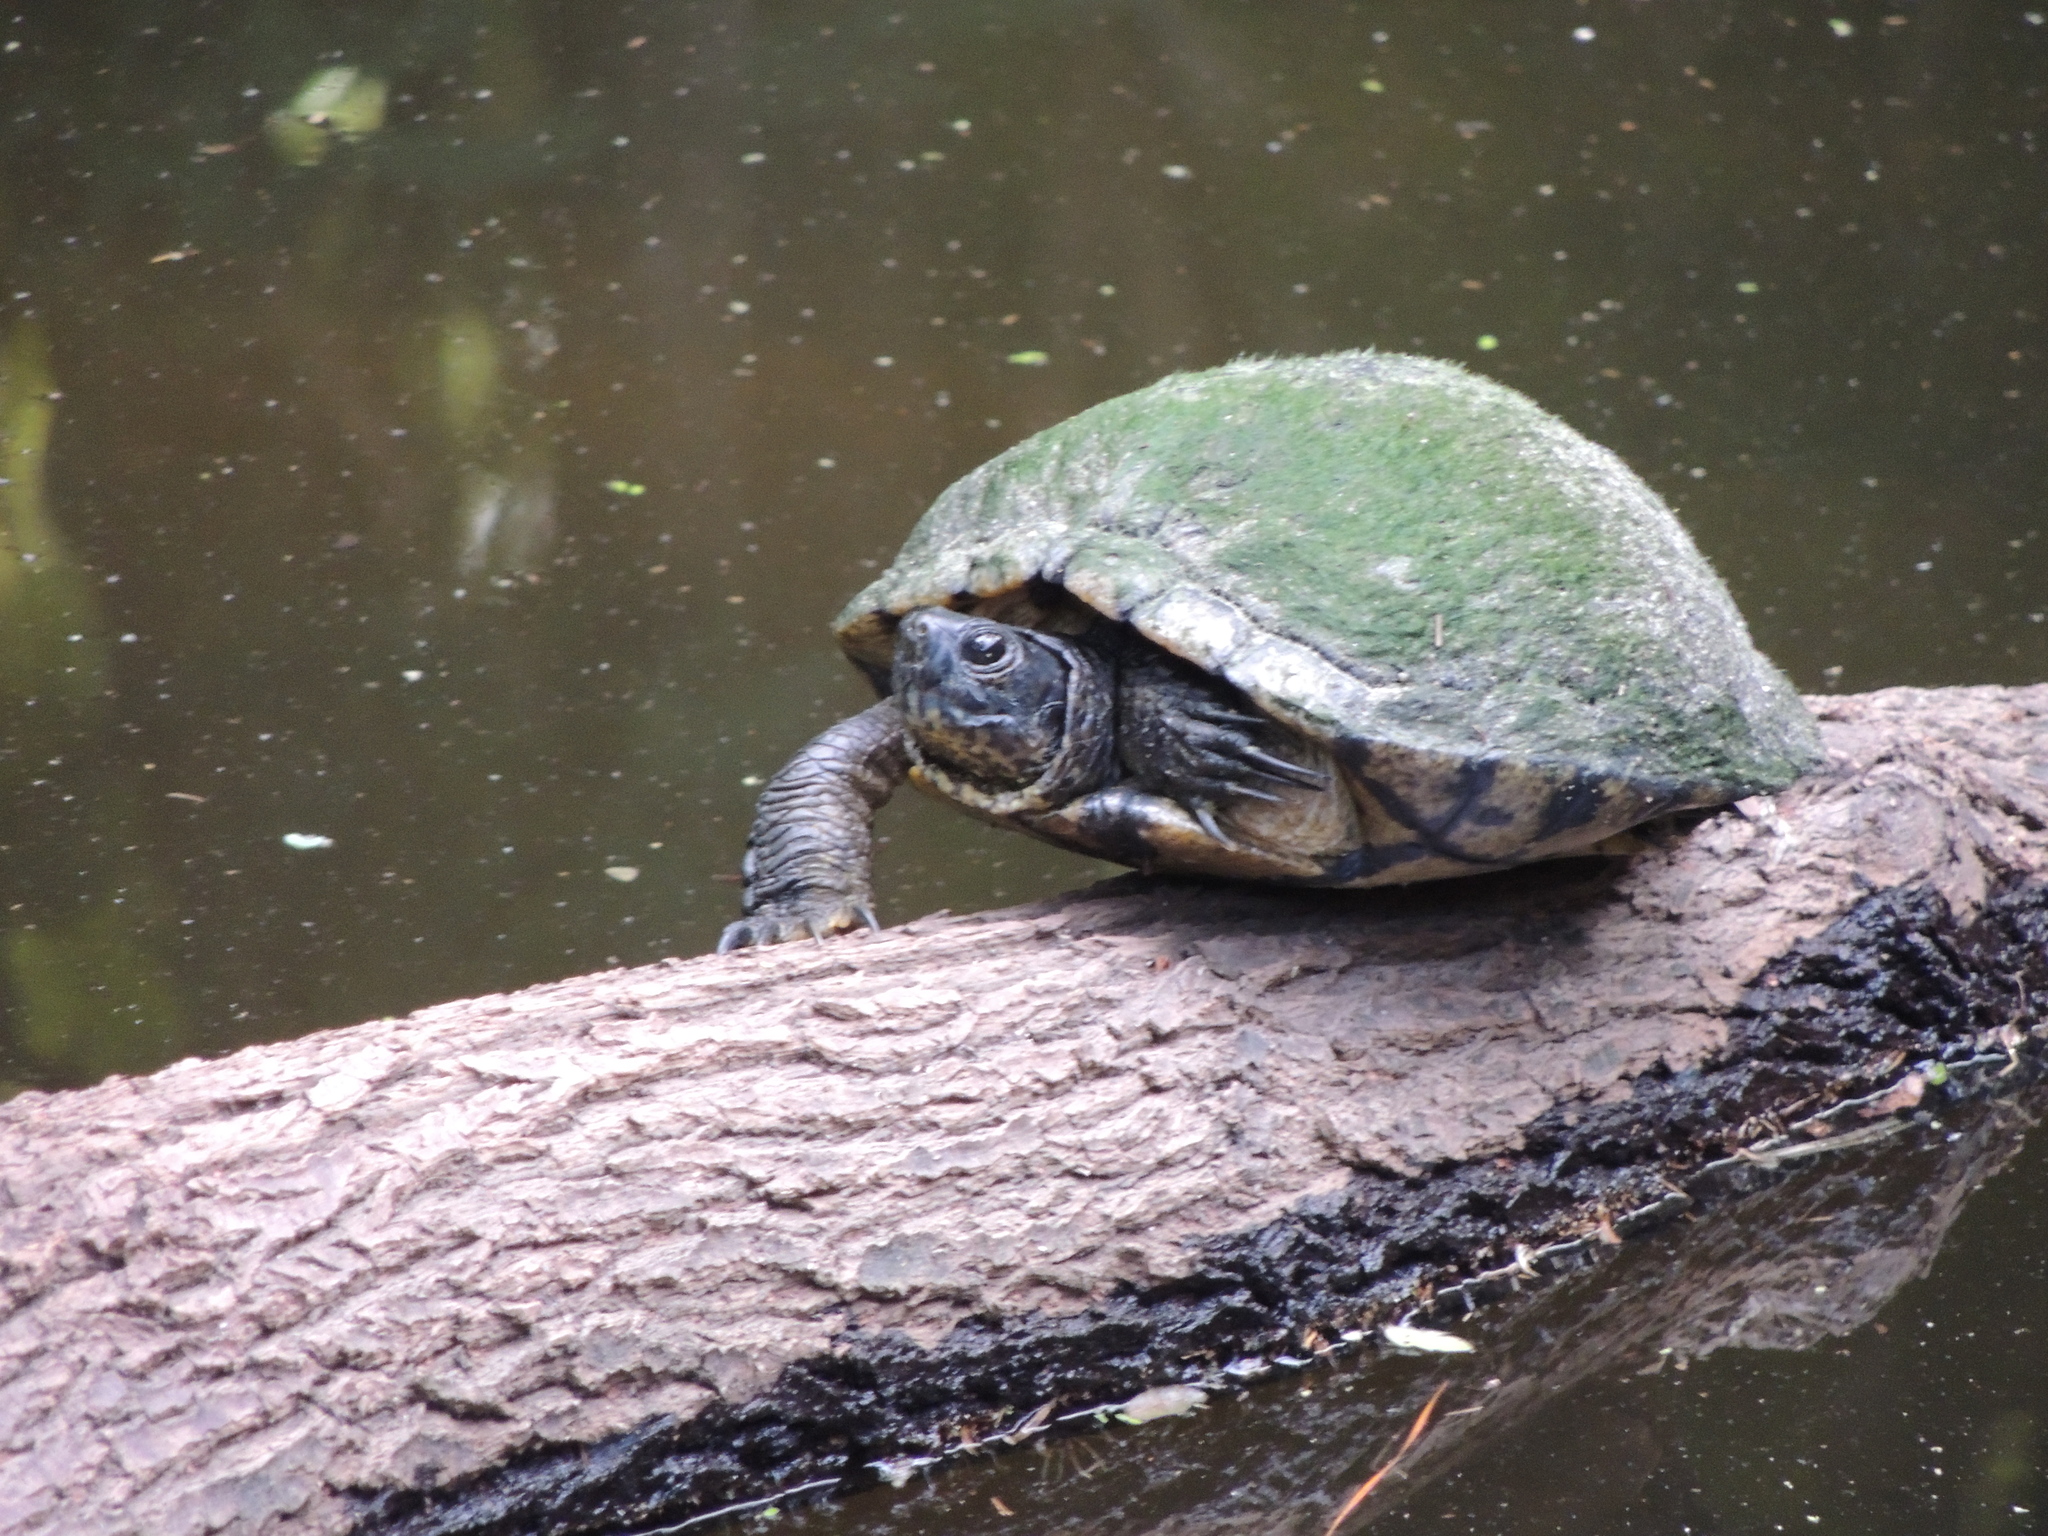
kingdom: Animalia
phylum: Chordata
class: Testudines
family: Emydidae
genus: Trachemys
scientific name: Trachemys scripta
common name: Slider
